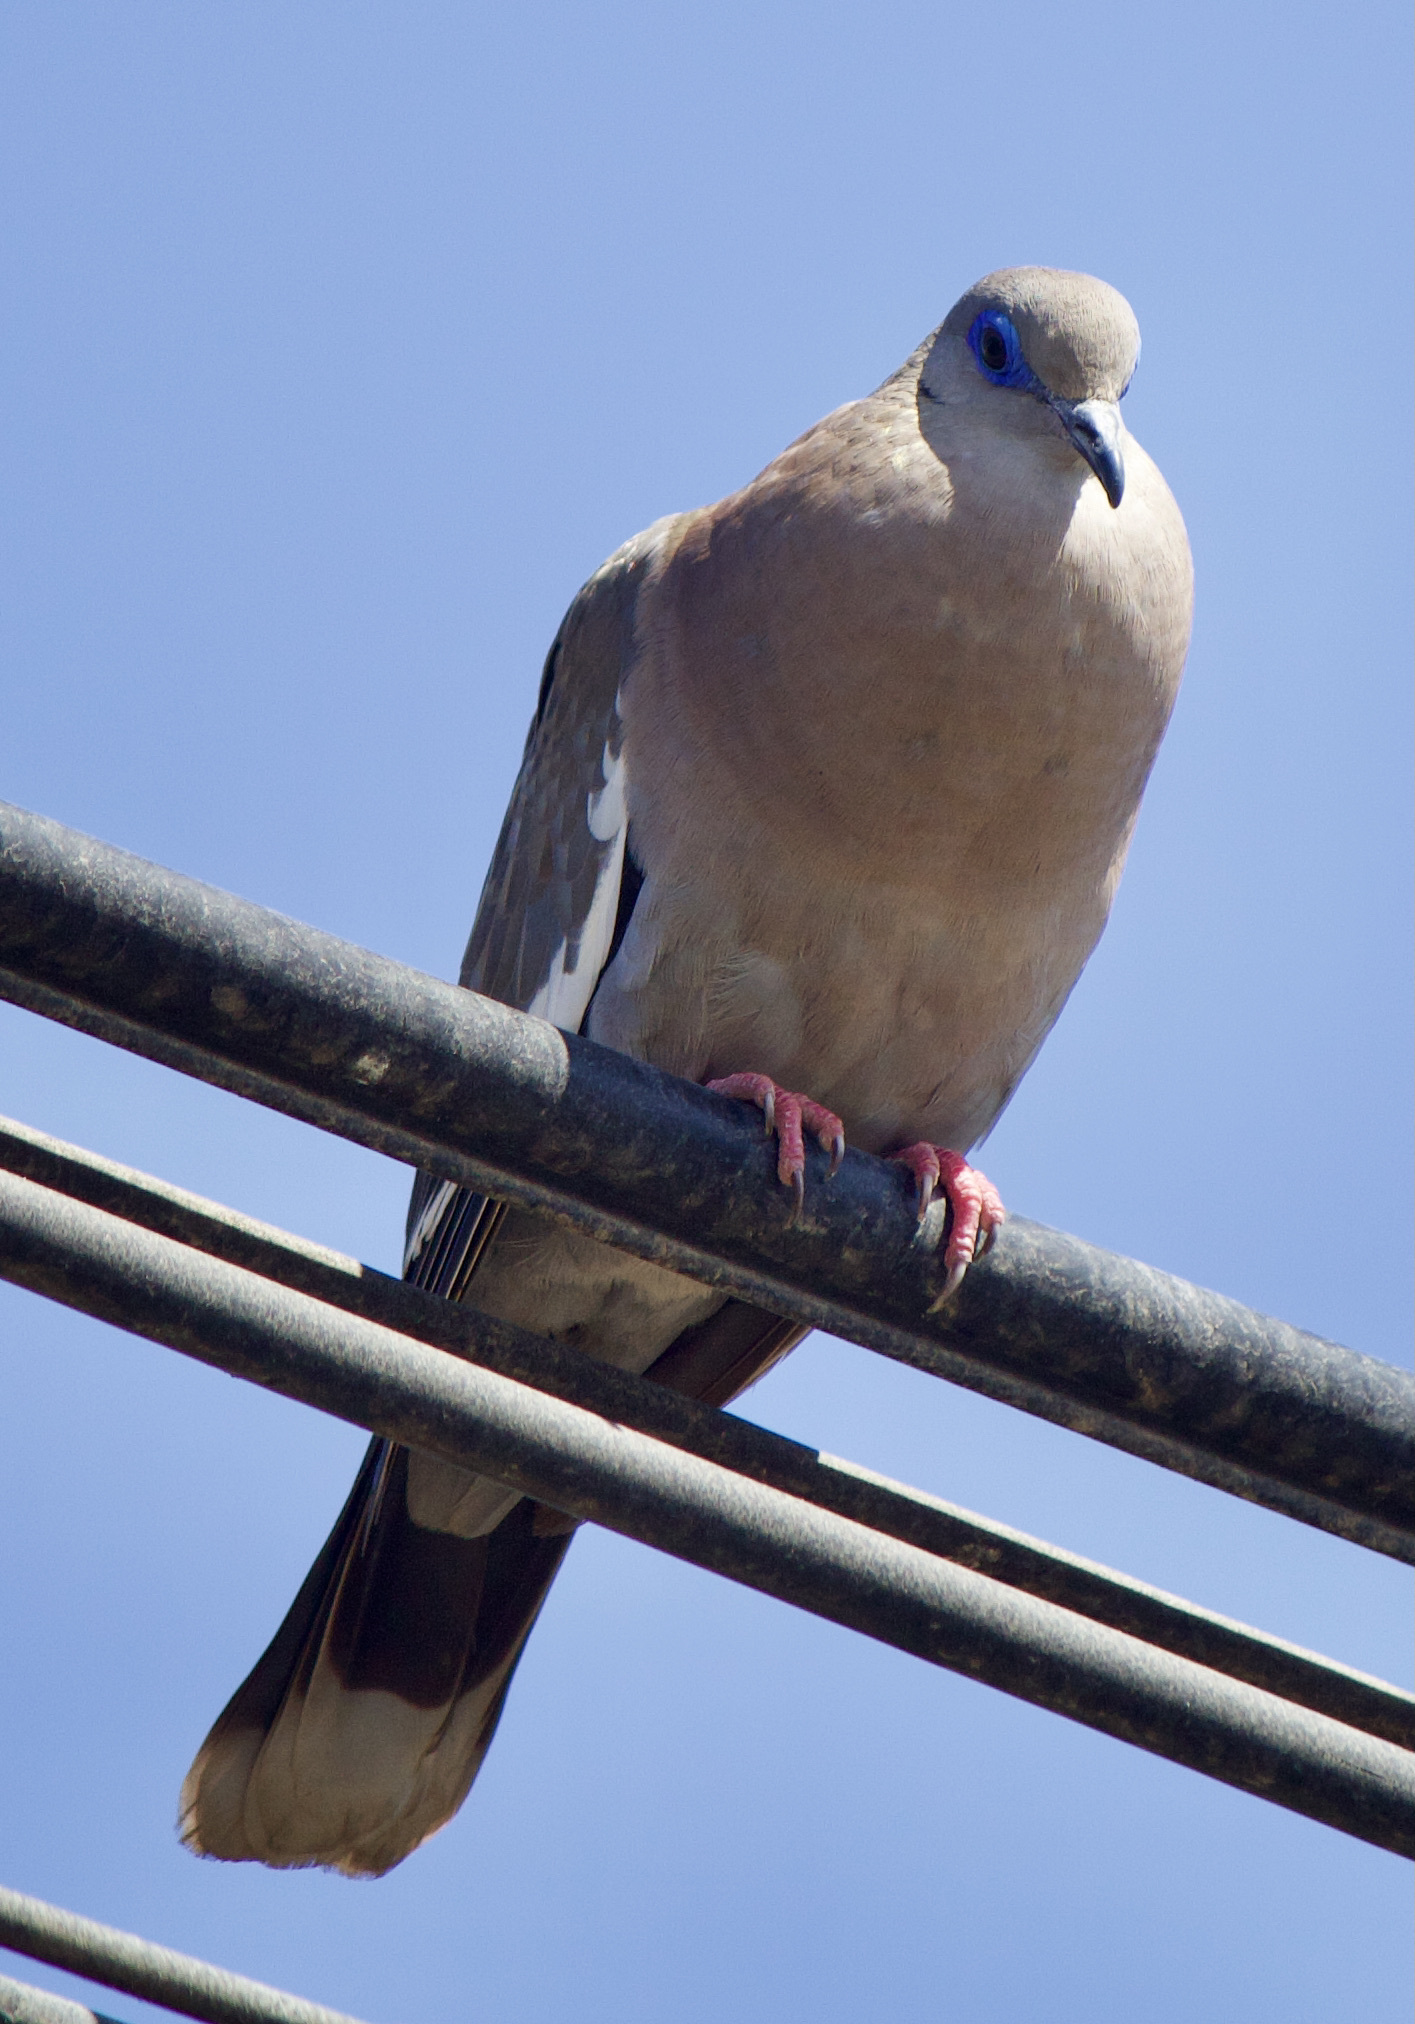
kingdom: Animalia
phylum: Chordata
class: Aves
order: Columbiformes
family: Columbidae
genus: Zenaida
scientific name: Zenaida meloda
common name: West peruvian dove
